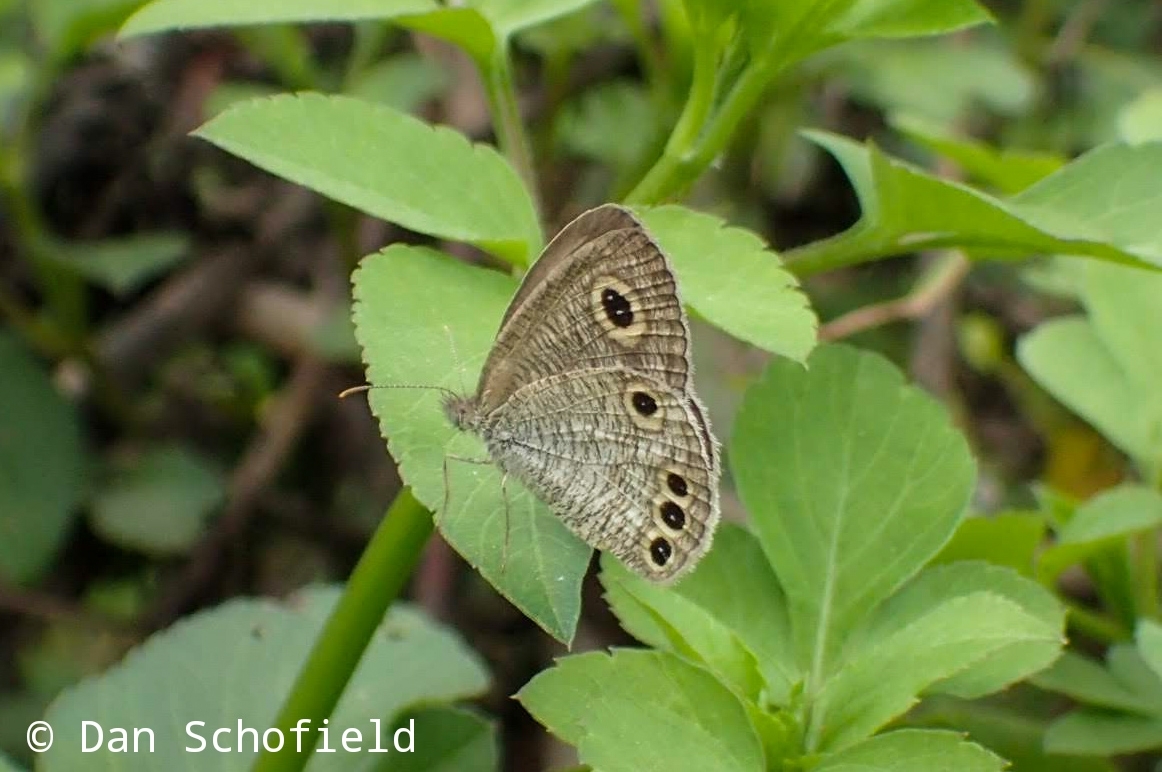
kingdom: Animalia
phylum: Arthropoda
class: Insecta
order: Lepidoptera
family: Nymphalidae
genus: Ypthima
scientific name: Ypthima huebneri
